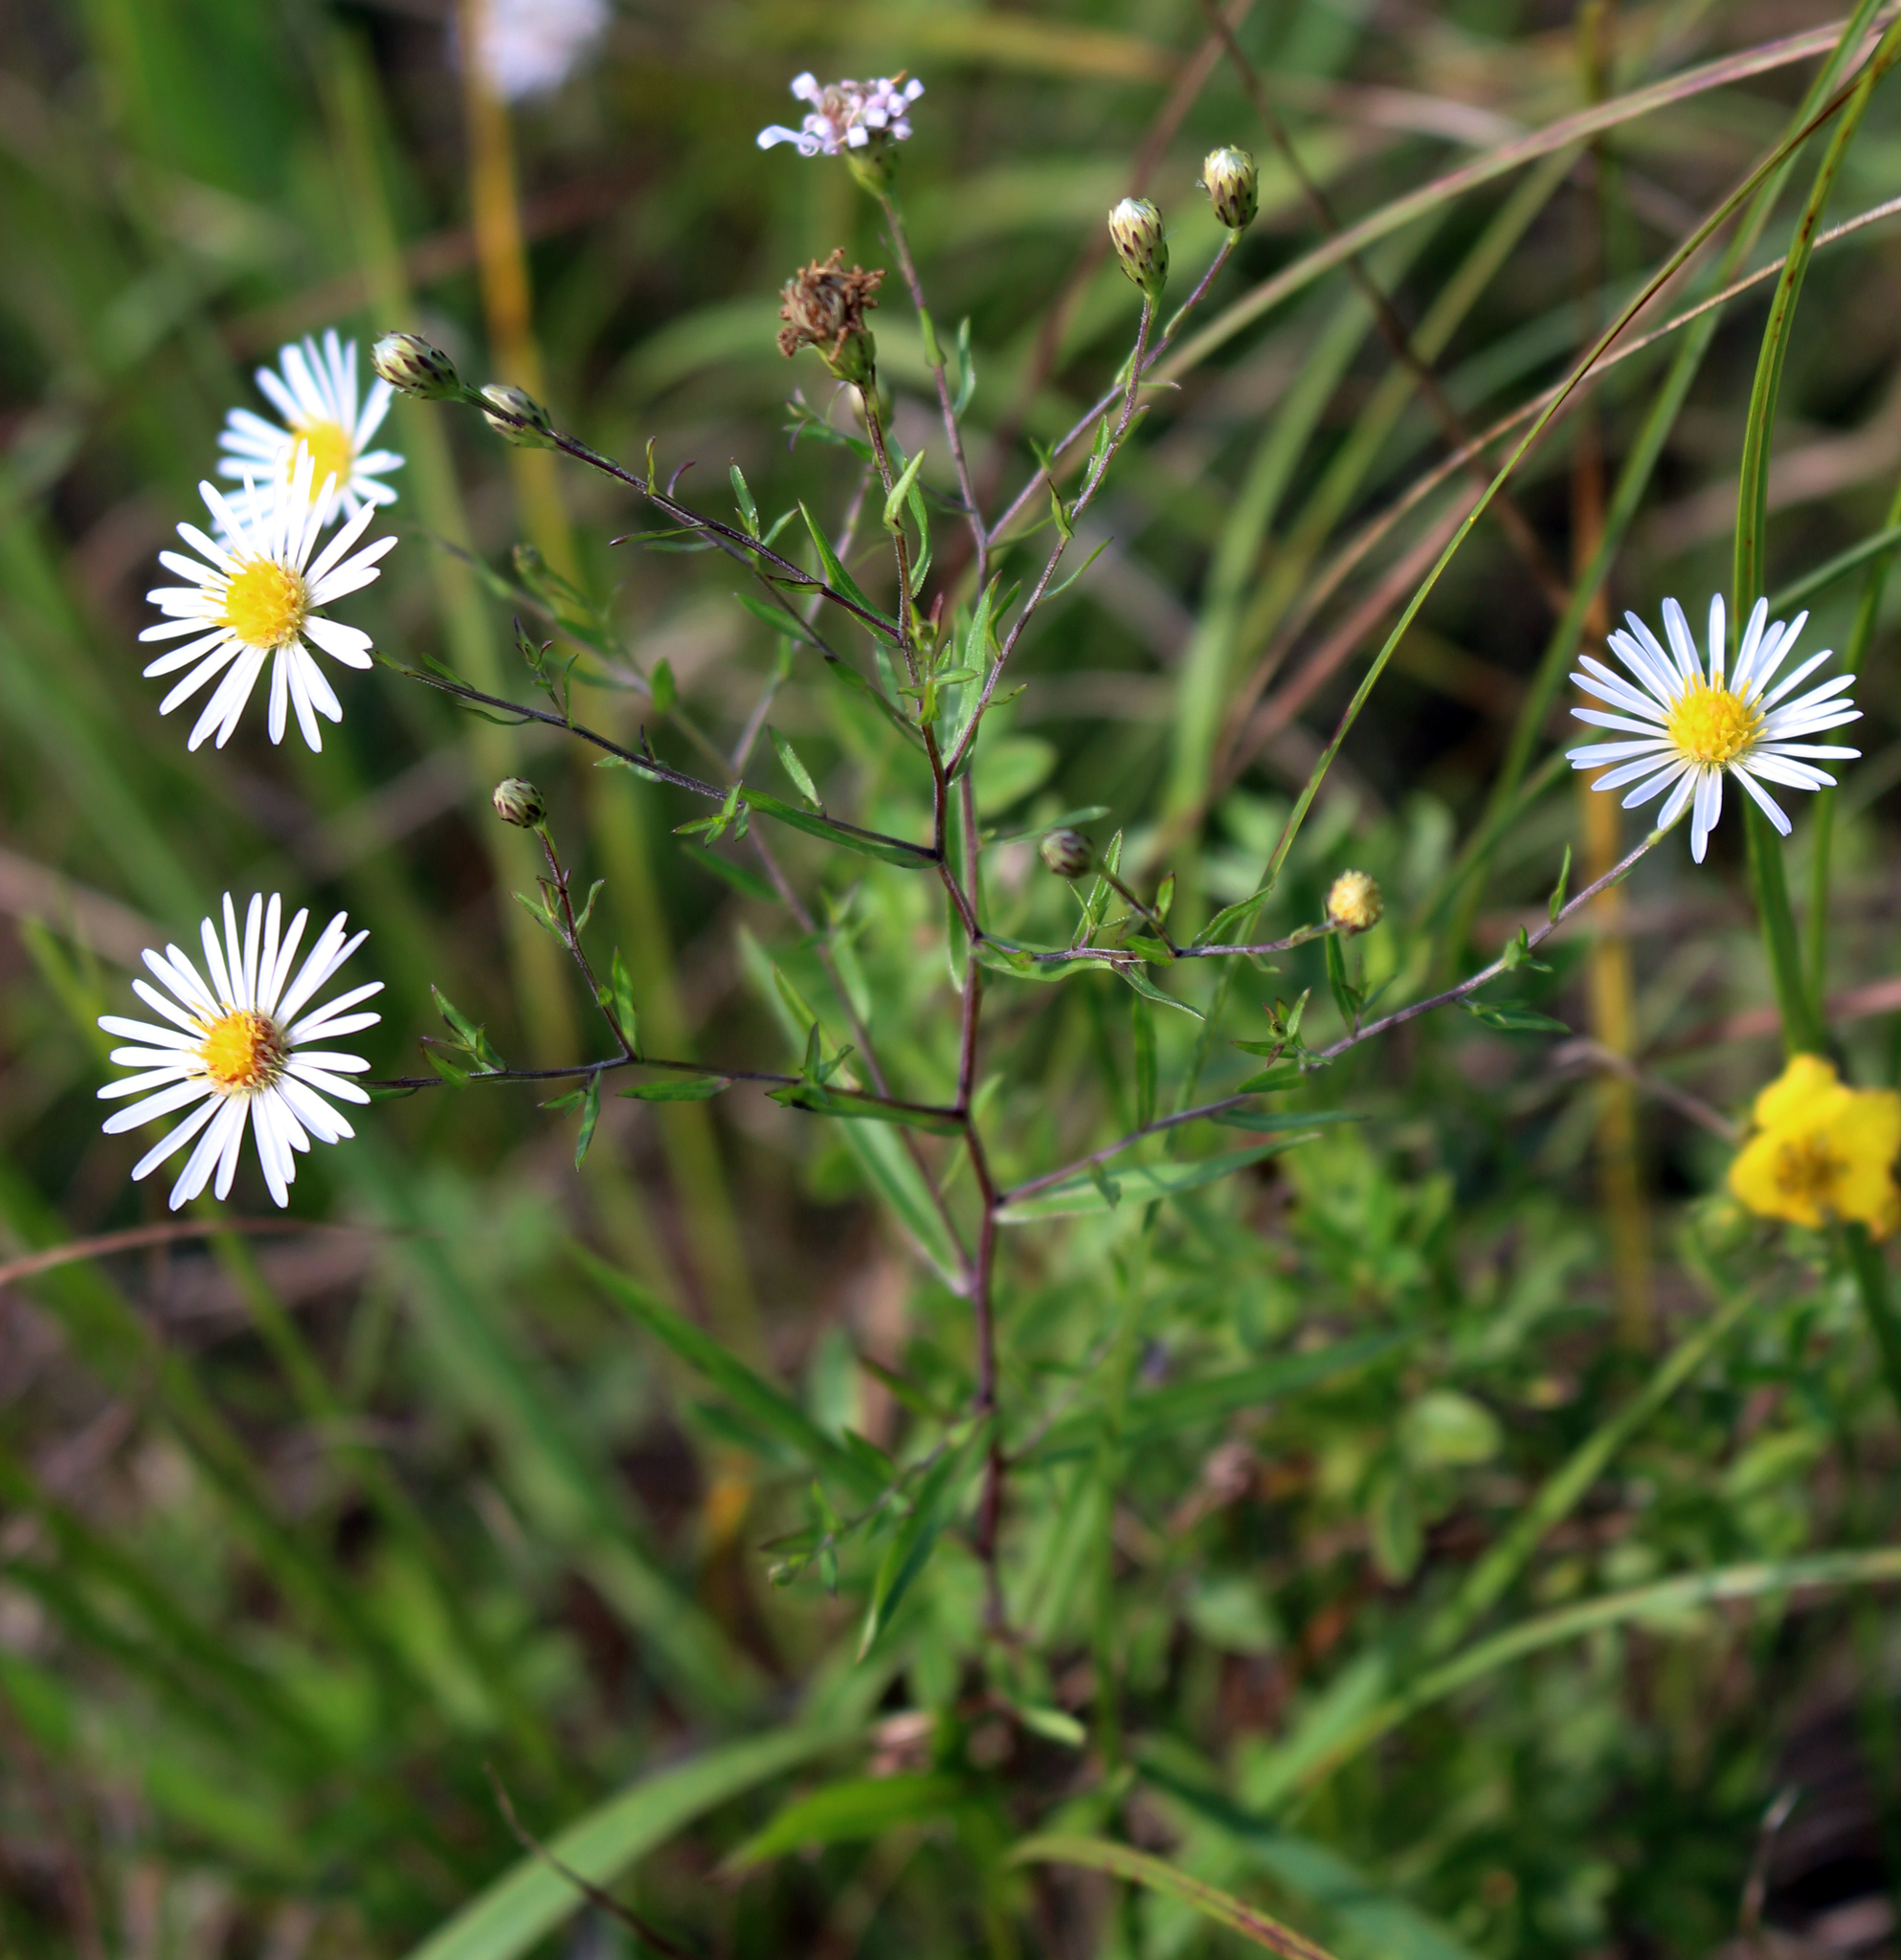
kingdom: Plantae
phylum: Tracheophyta
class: Magnoliopsida
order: Asterales
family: Asteraceae
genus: Symphyotrichum
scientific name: Symphyotrichum boreale
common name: Northern bog aster
